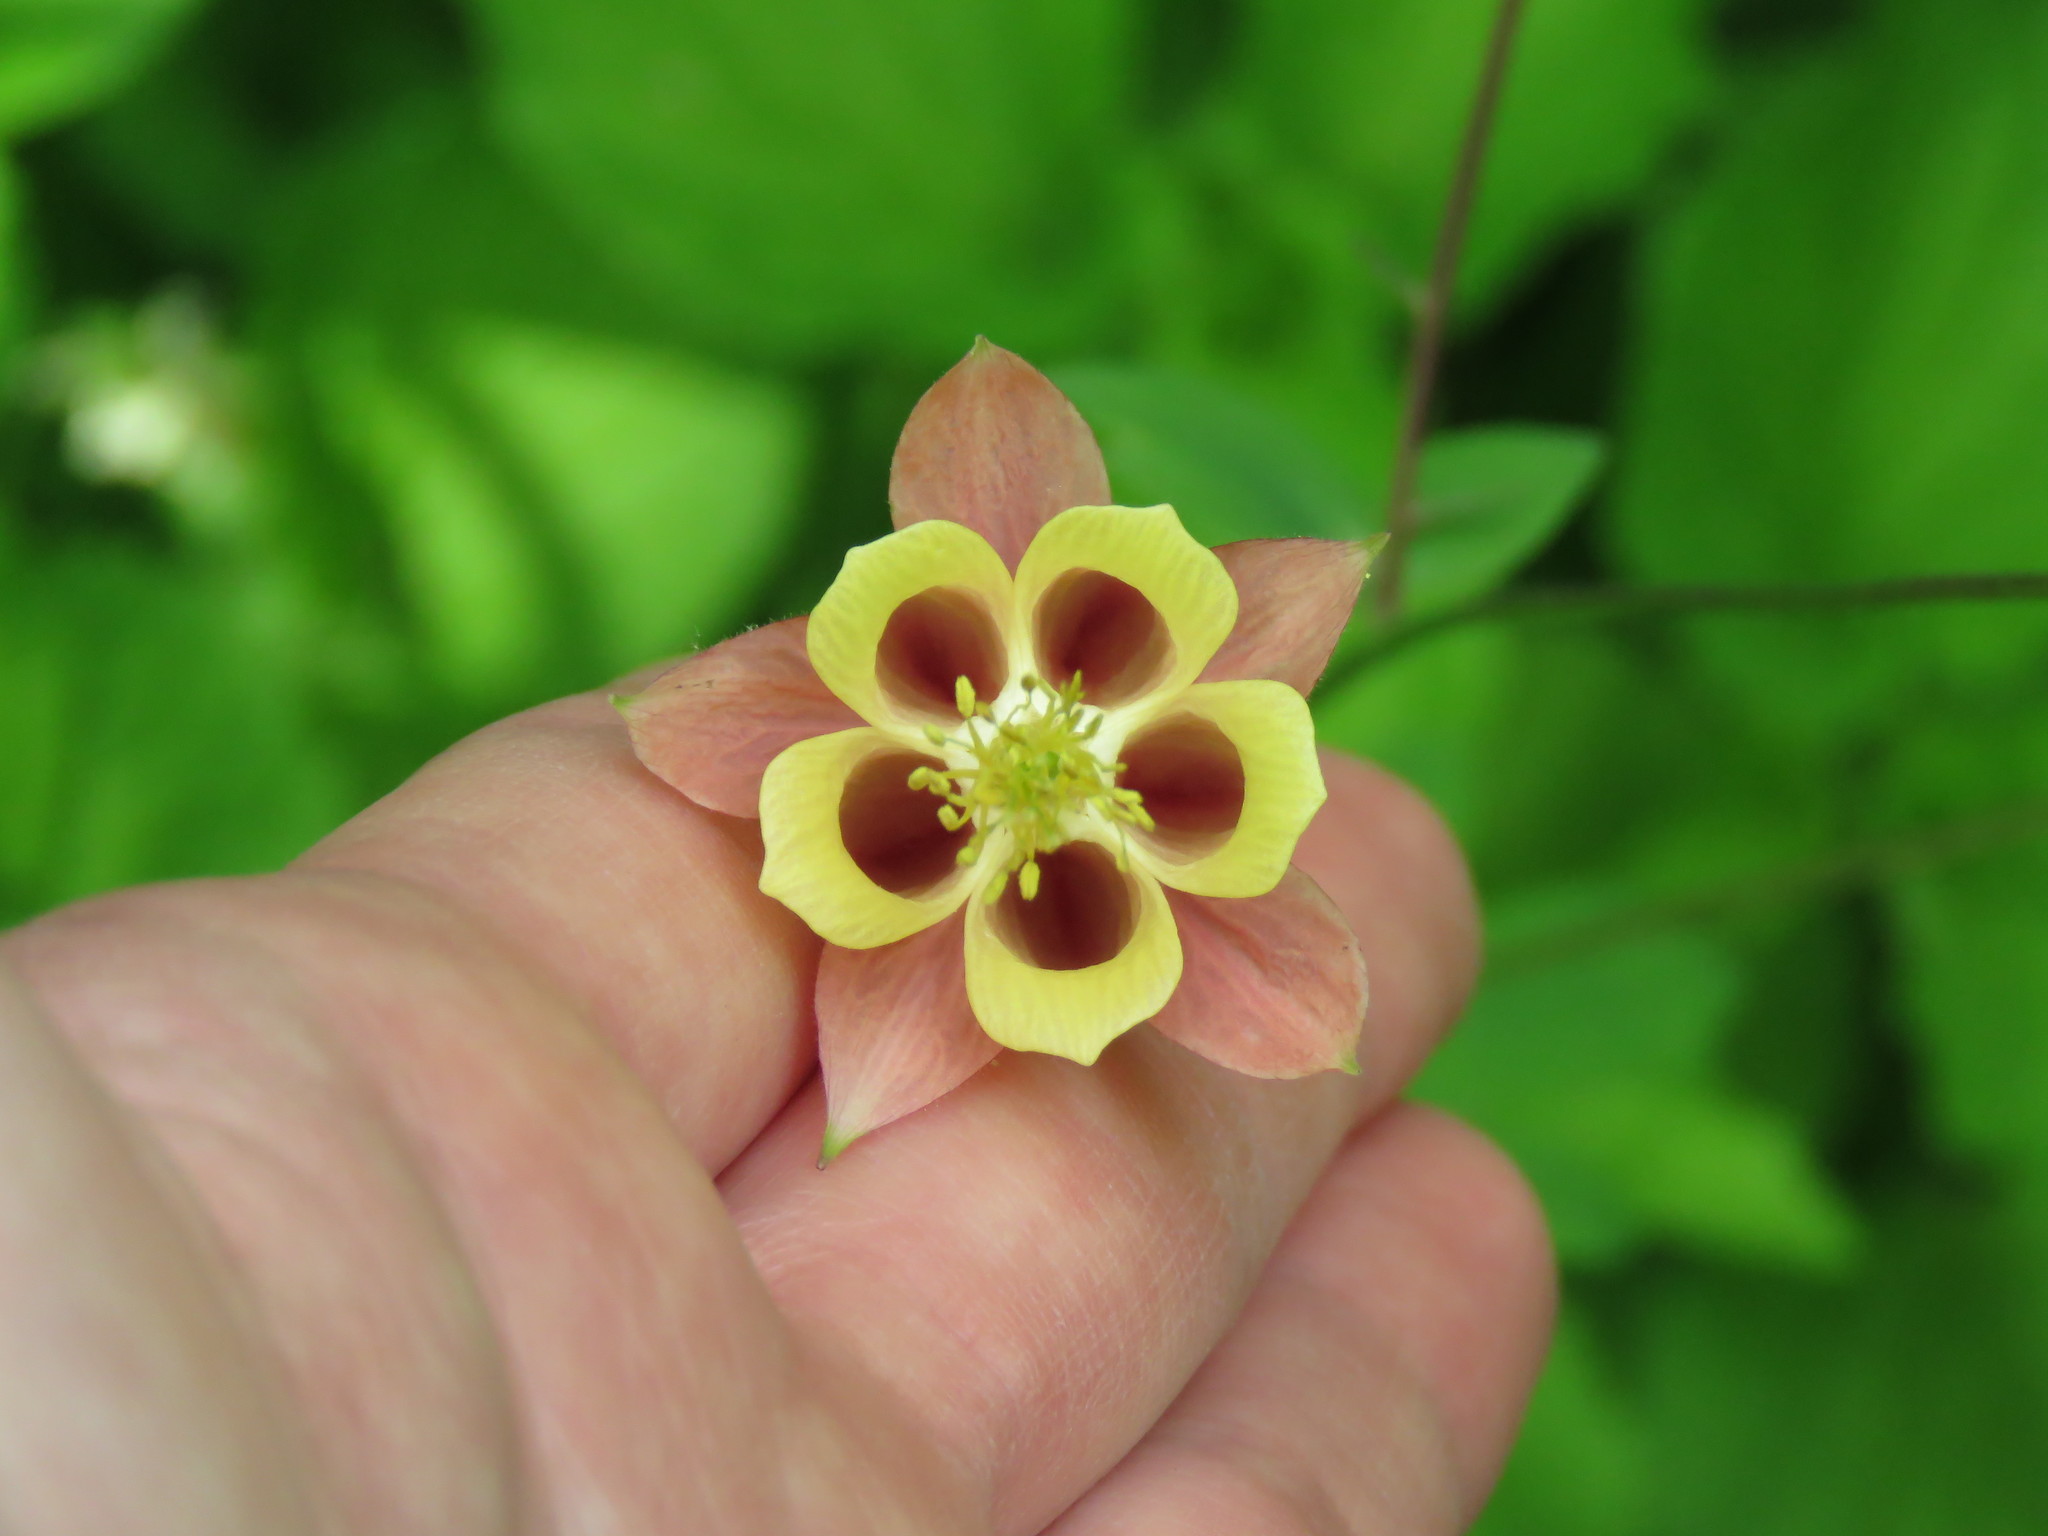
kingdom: Plantae
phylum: Tracheophyta
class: Magnoliopsida
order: Ranunculales
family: Ranunculaceae
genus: Aquilegia
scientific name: Aquilegia canadensis
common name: American columbine
